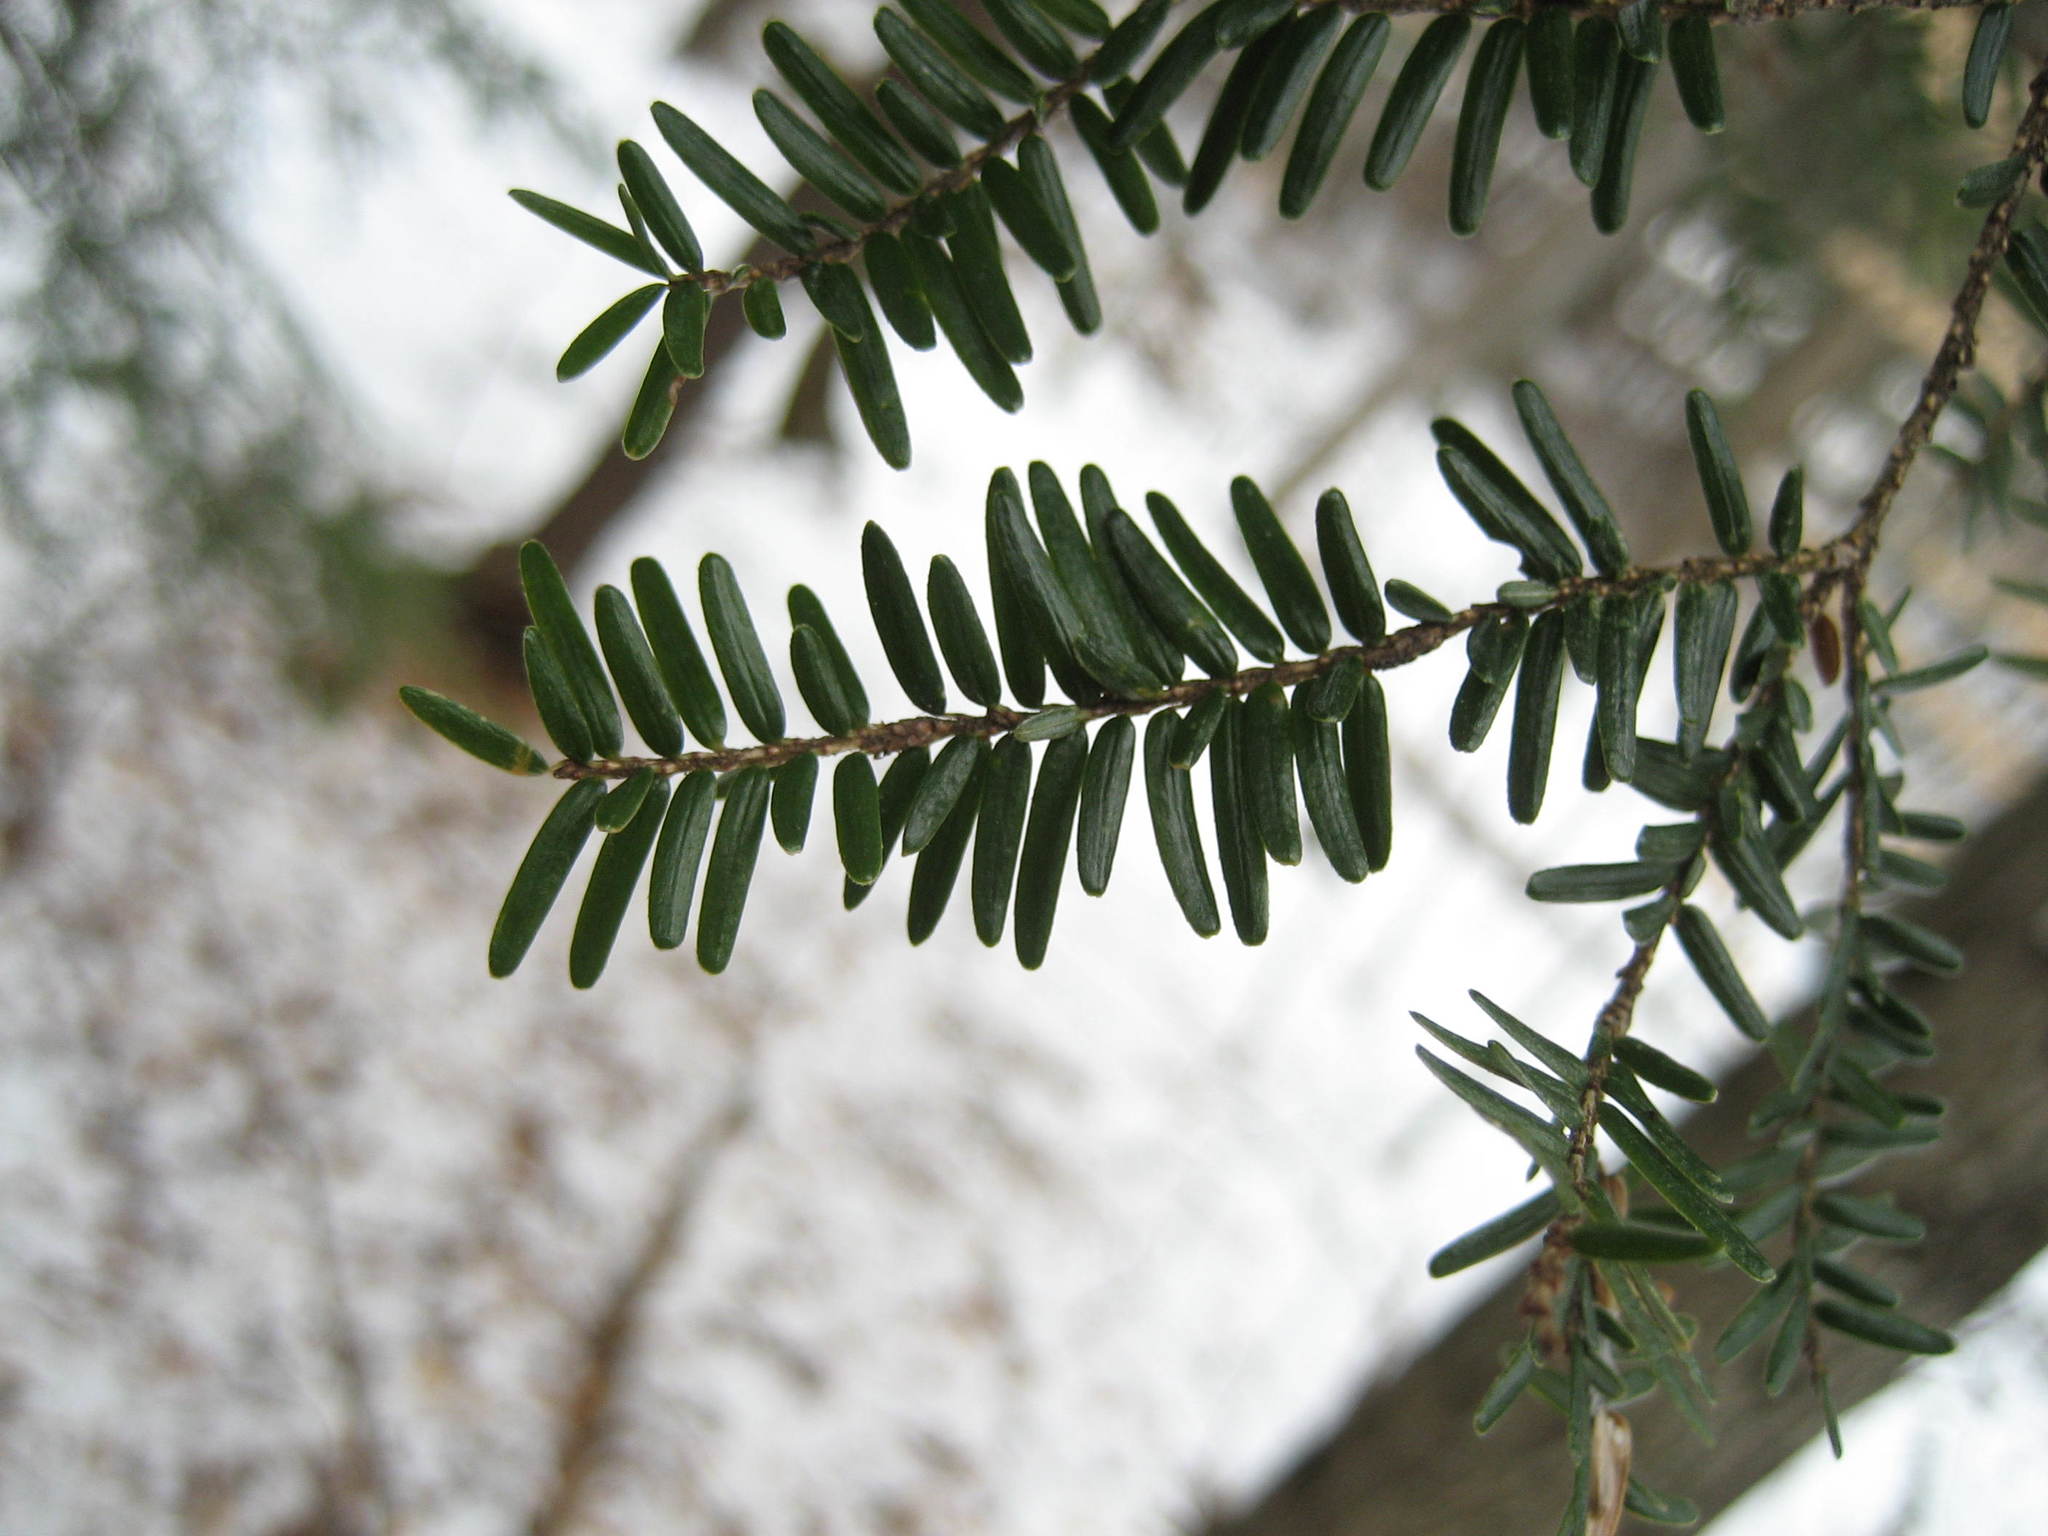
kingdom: Plantae
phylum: Tracheophyta
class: Pinopsida
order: Pinales
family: Pinaceae
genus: Tsuga
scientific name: Tsuga canadensis
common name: Eastern hemlock
